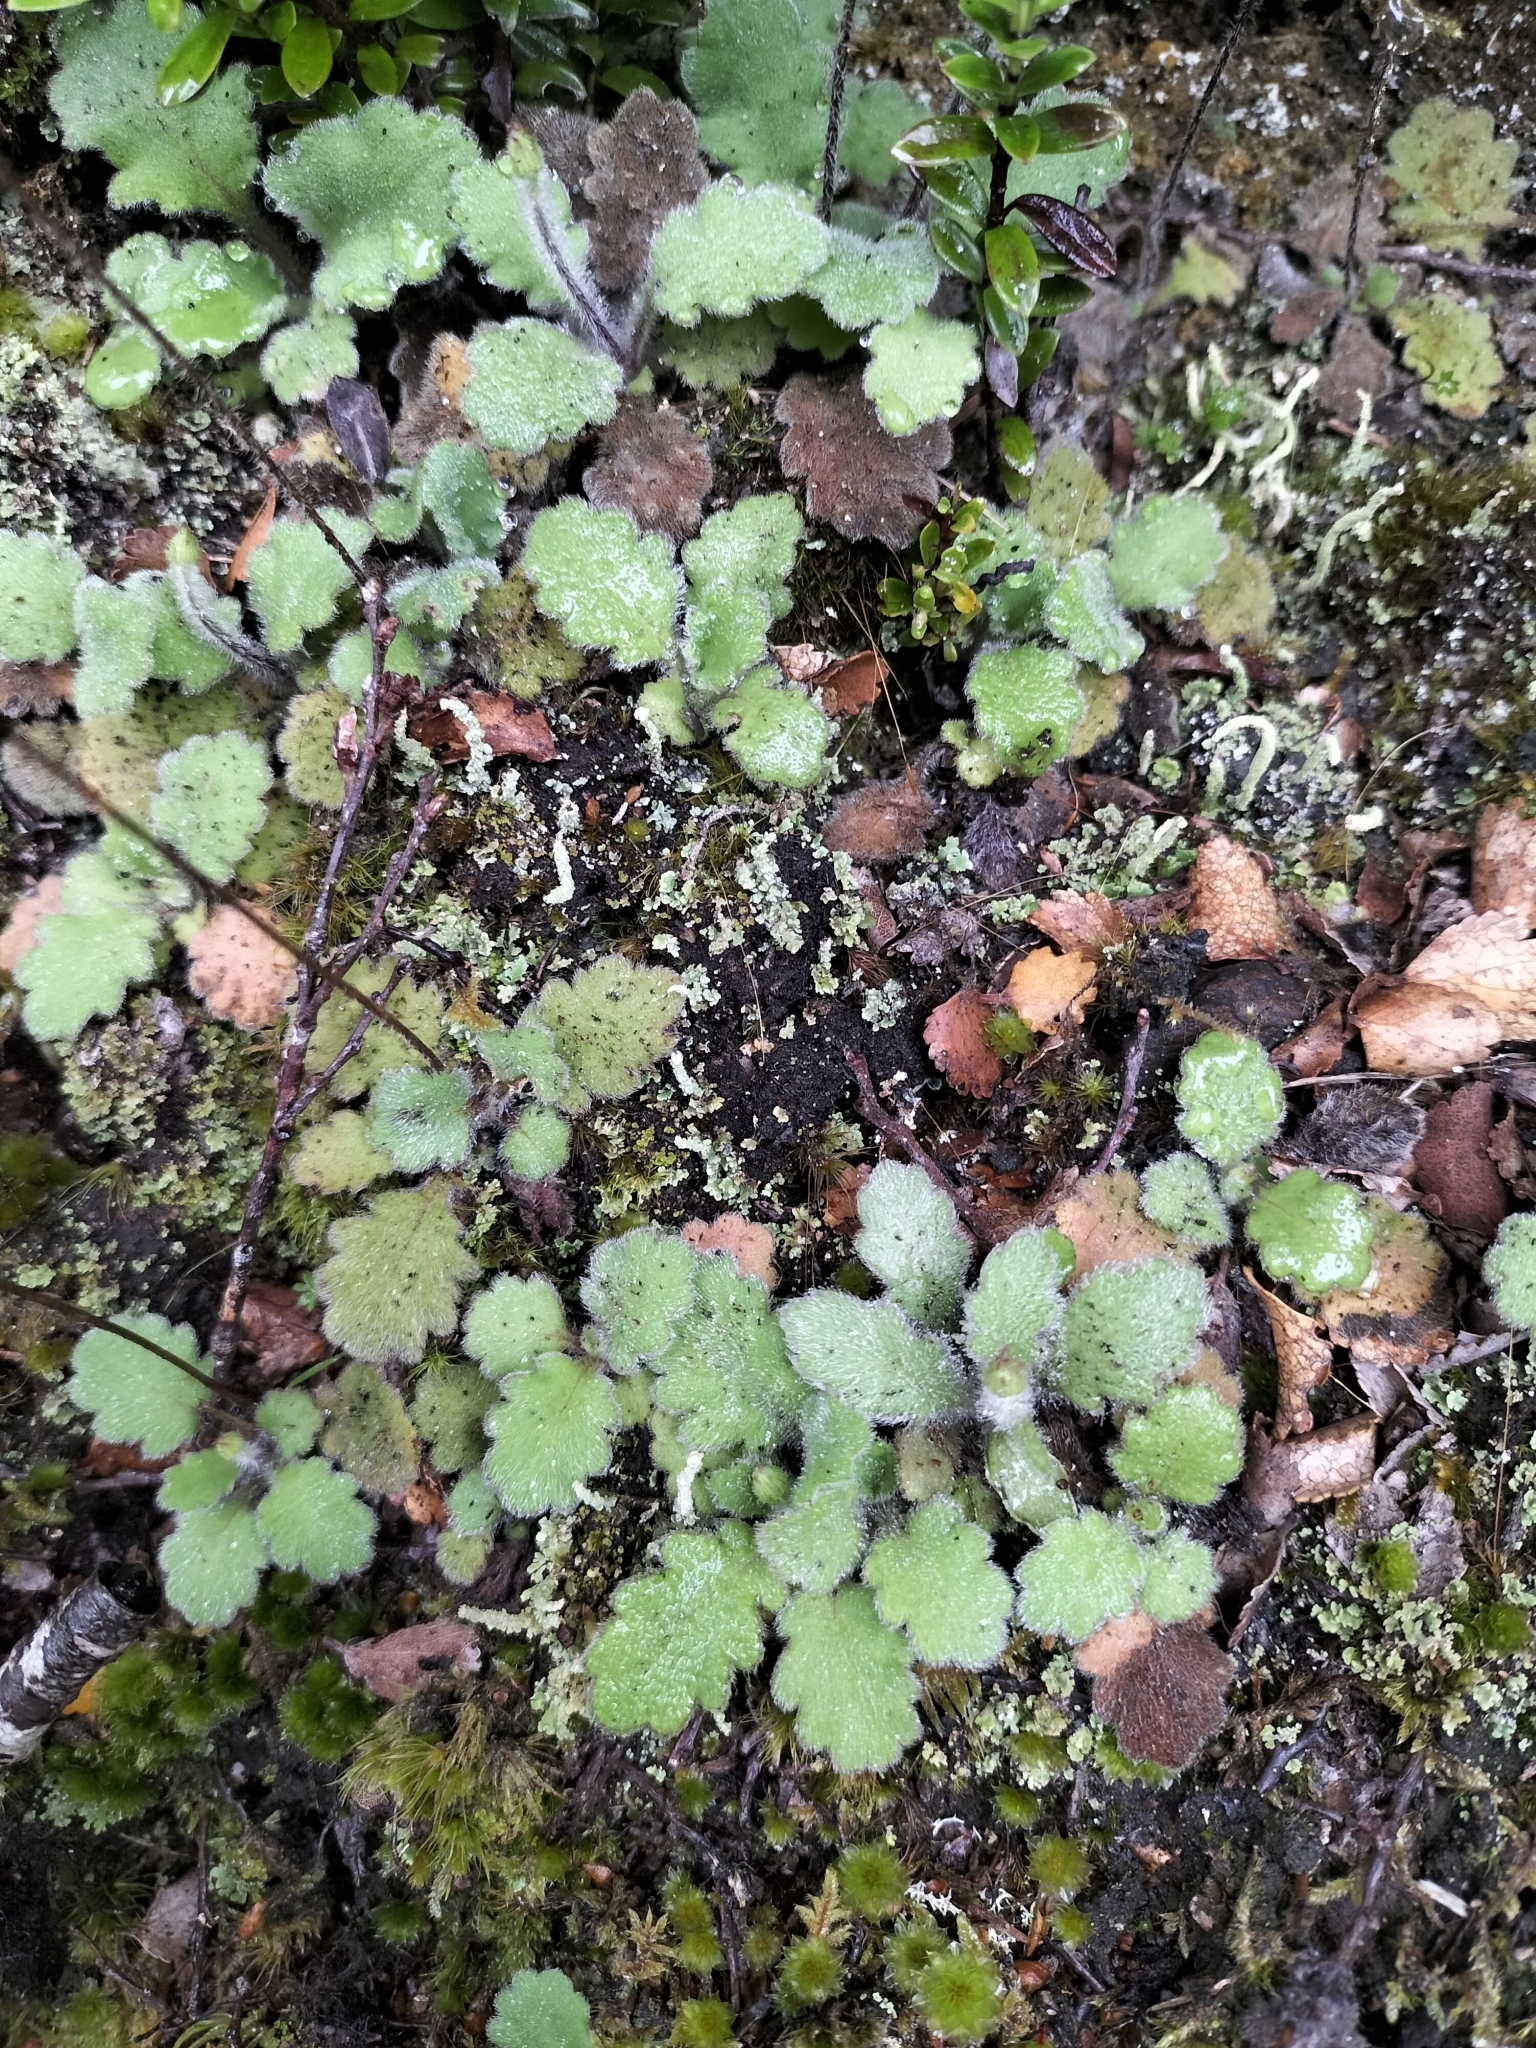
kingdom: Plantae
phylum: Tracheophyta
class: Magnoliopsida
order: Asterales
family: Asteraceae
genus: Lagenophora
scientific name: Lagenophora pinnatifida
